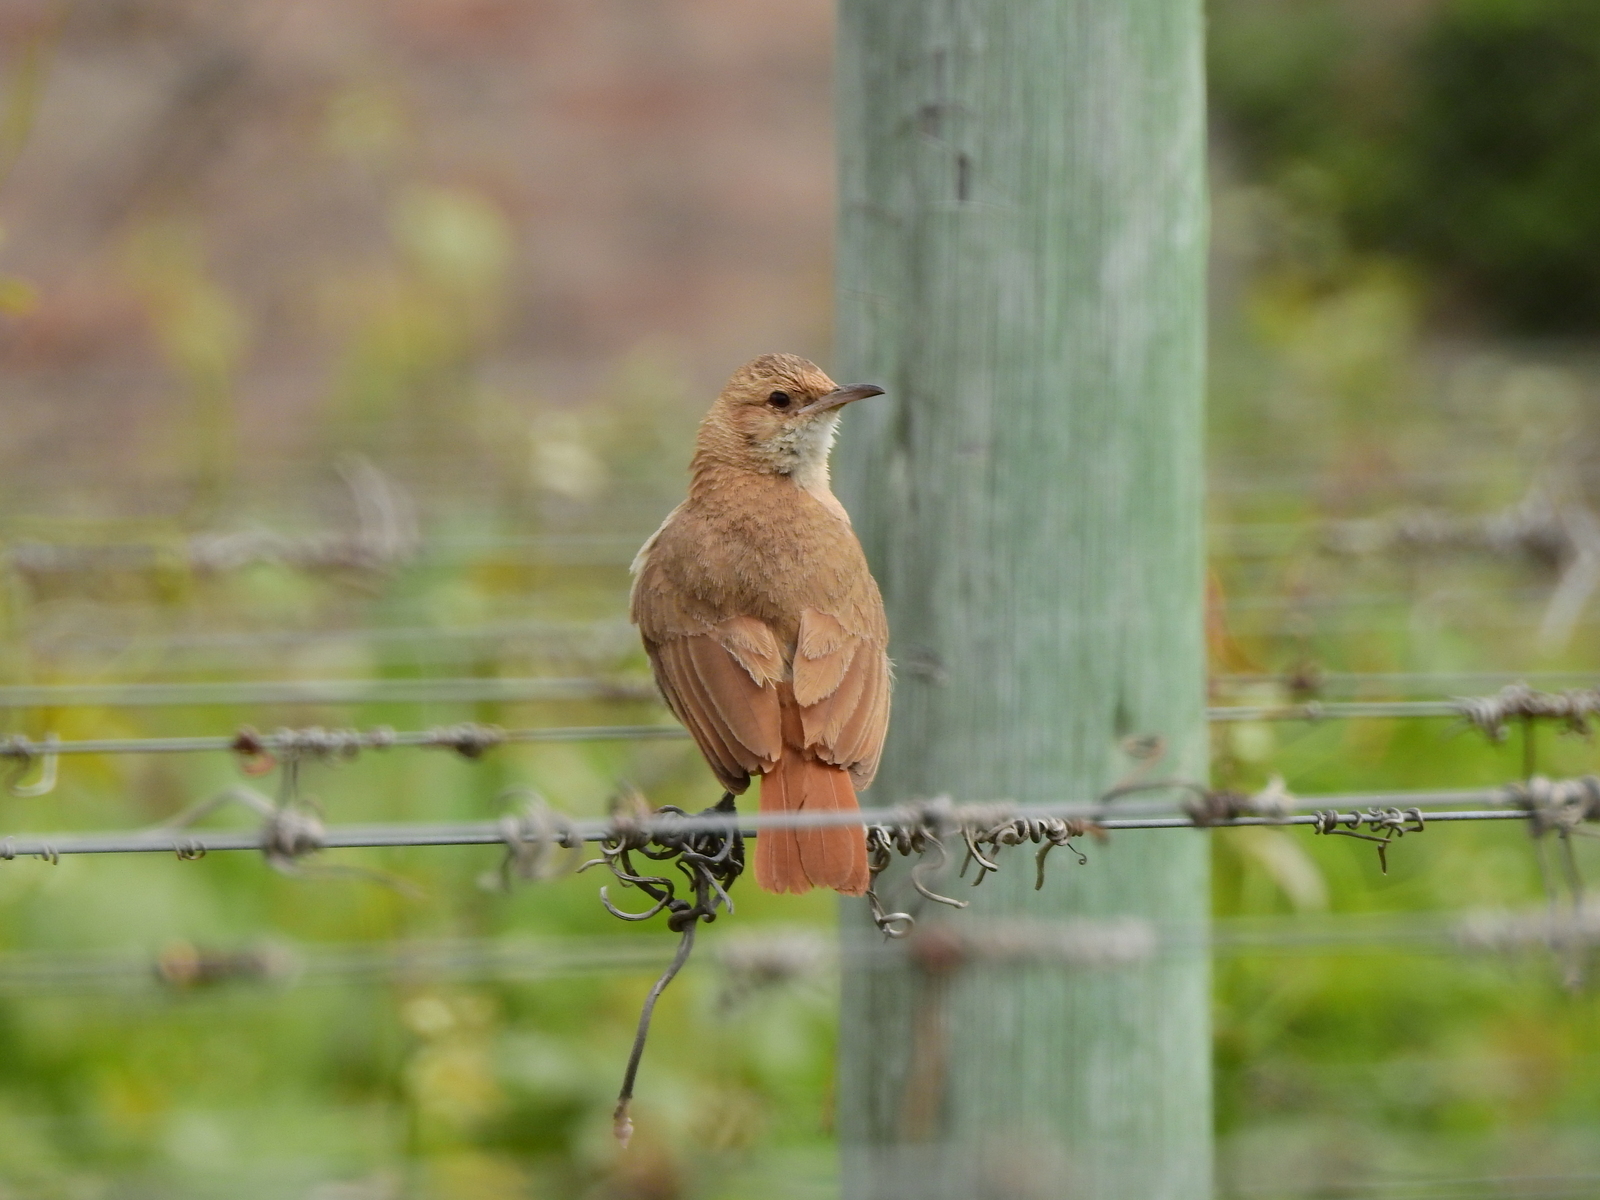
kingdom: Animalia
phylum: Chordata
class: Aves
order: Passeriformes
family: Furnariidae
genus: Furnarius
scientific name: Furnarius rufus
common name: Rufous hornero
